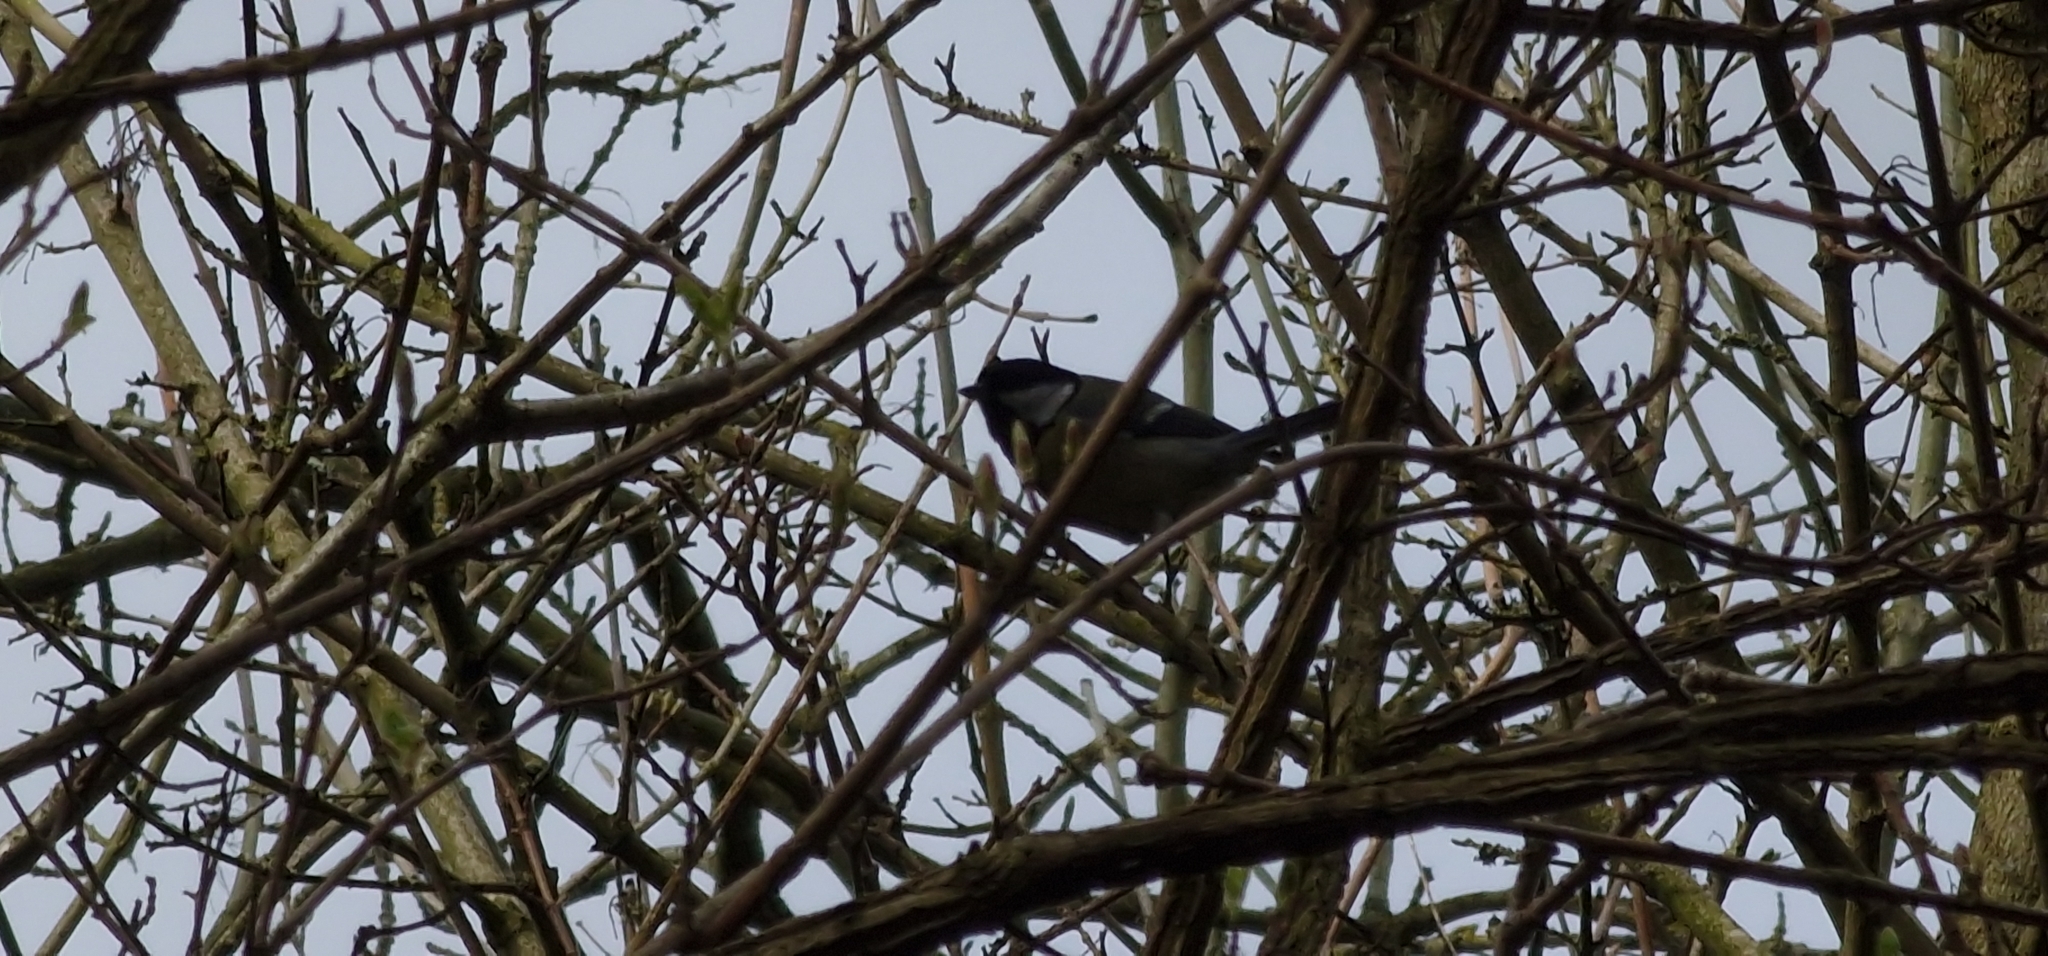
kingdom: Animalia
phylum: Chordata
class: Aves
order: Passeriformes
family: Paridae
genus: Parus
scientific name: Parus major
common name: Great tit
